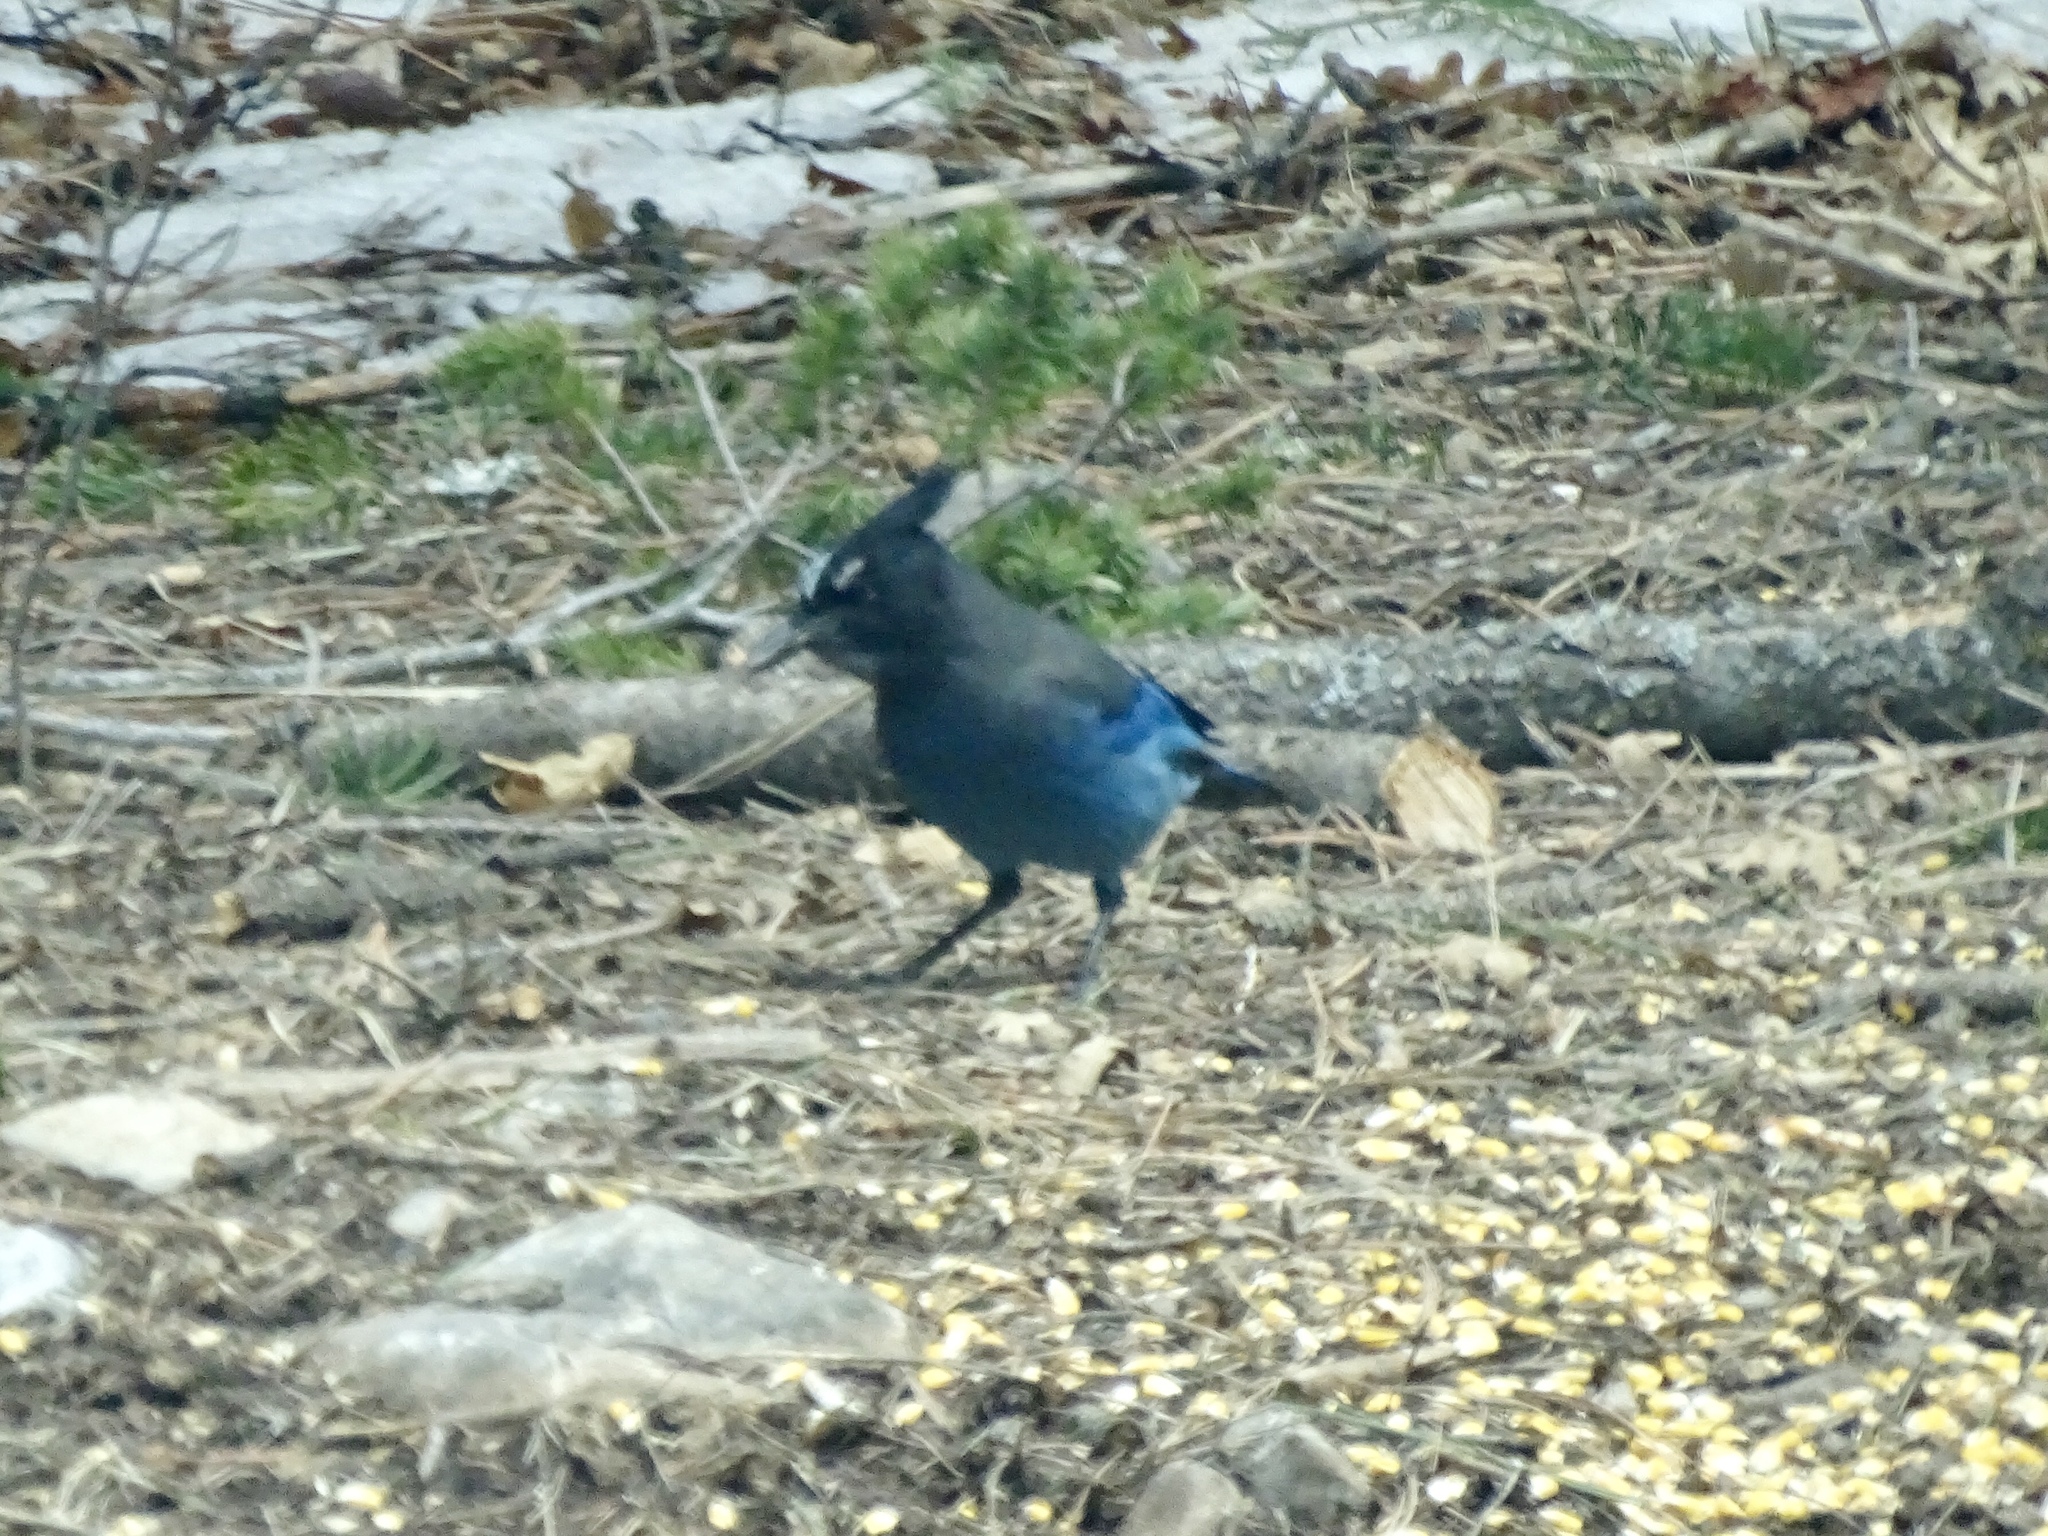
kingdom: Animalia
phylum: Chordata
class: Aves
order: Passeriformes
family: Corvidae
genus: Cyanocitta
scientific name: Cyanocitta stelleri
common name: Steller's jay
